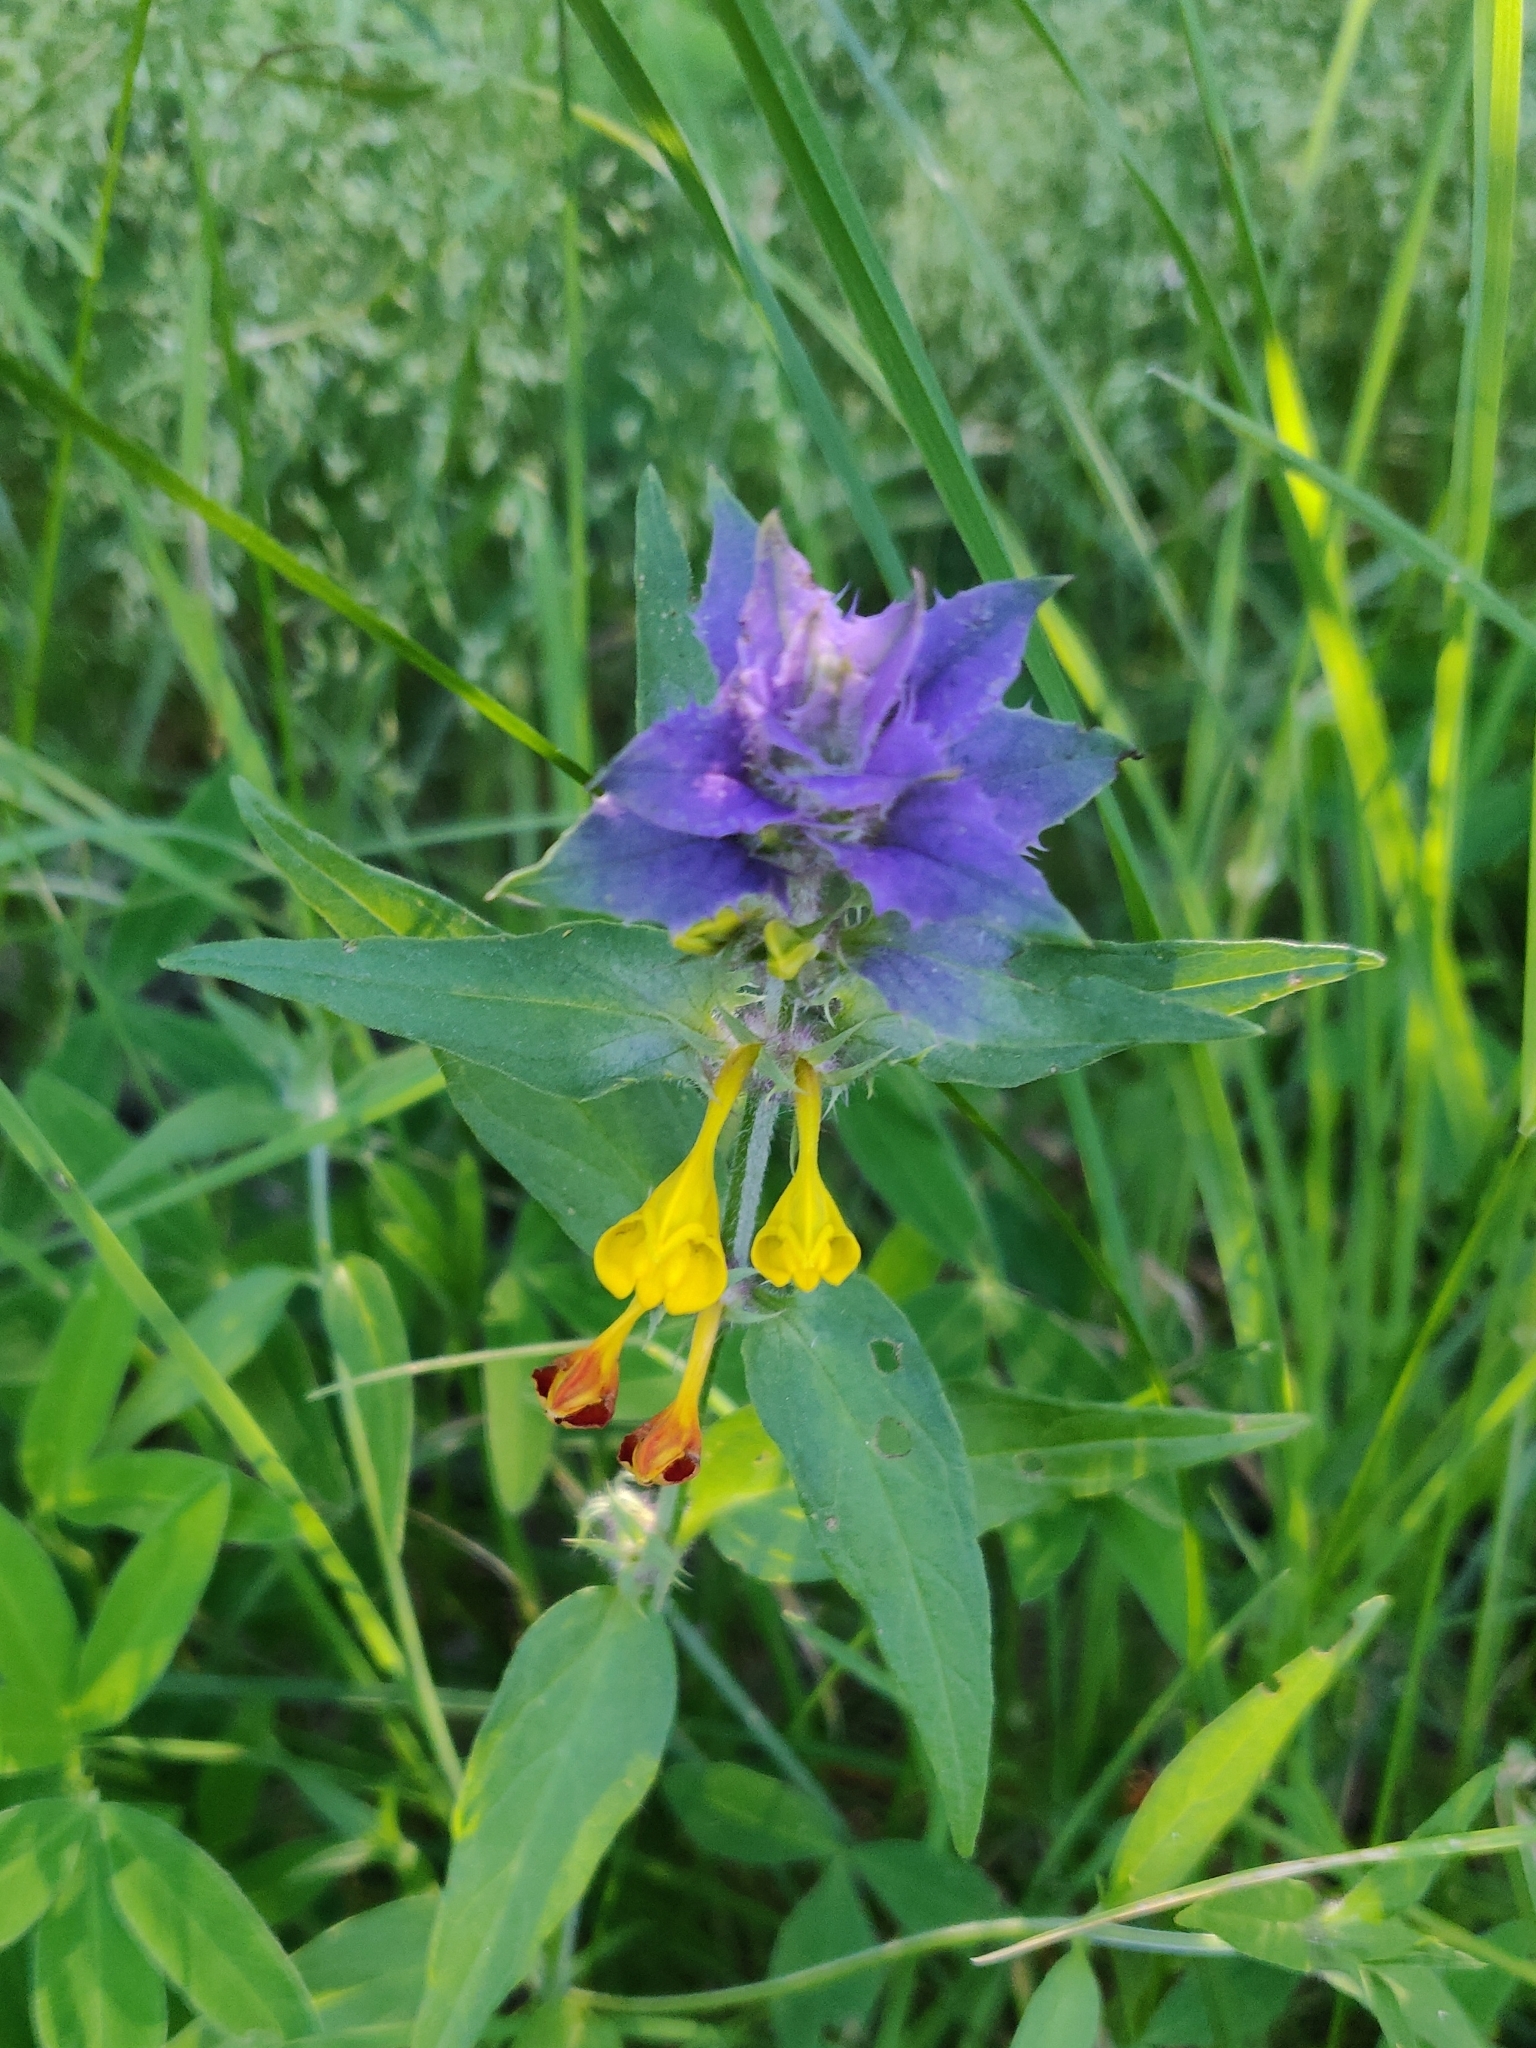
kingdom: Plantae
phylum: Tracheophyta
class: Magnoliopsida
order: Lamiales
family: Orobanchaceae
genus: Melampyrum
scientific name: Melampyrum nemorosum
